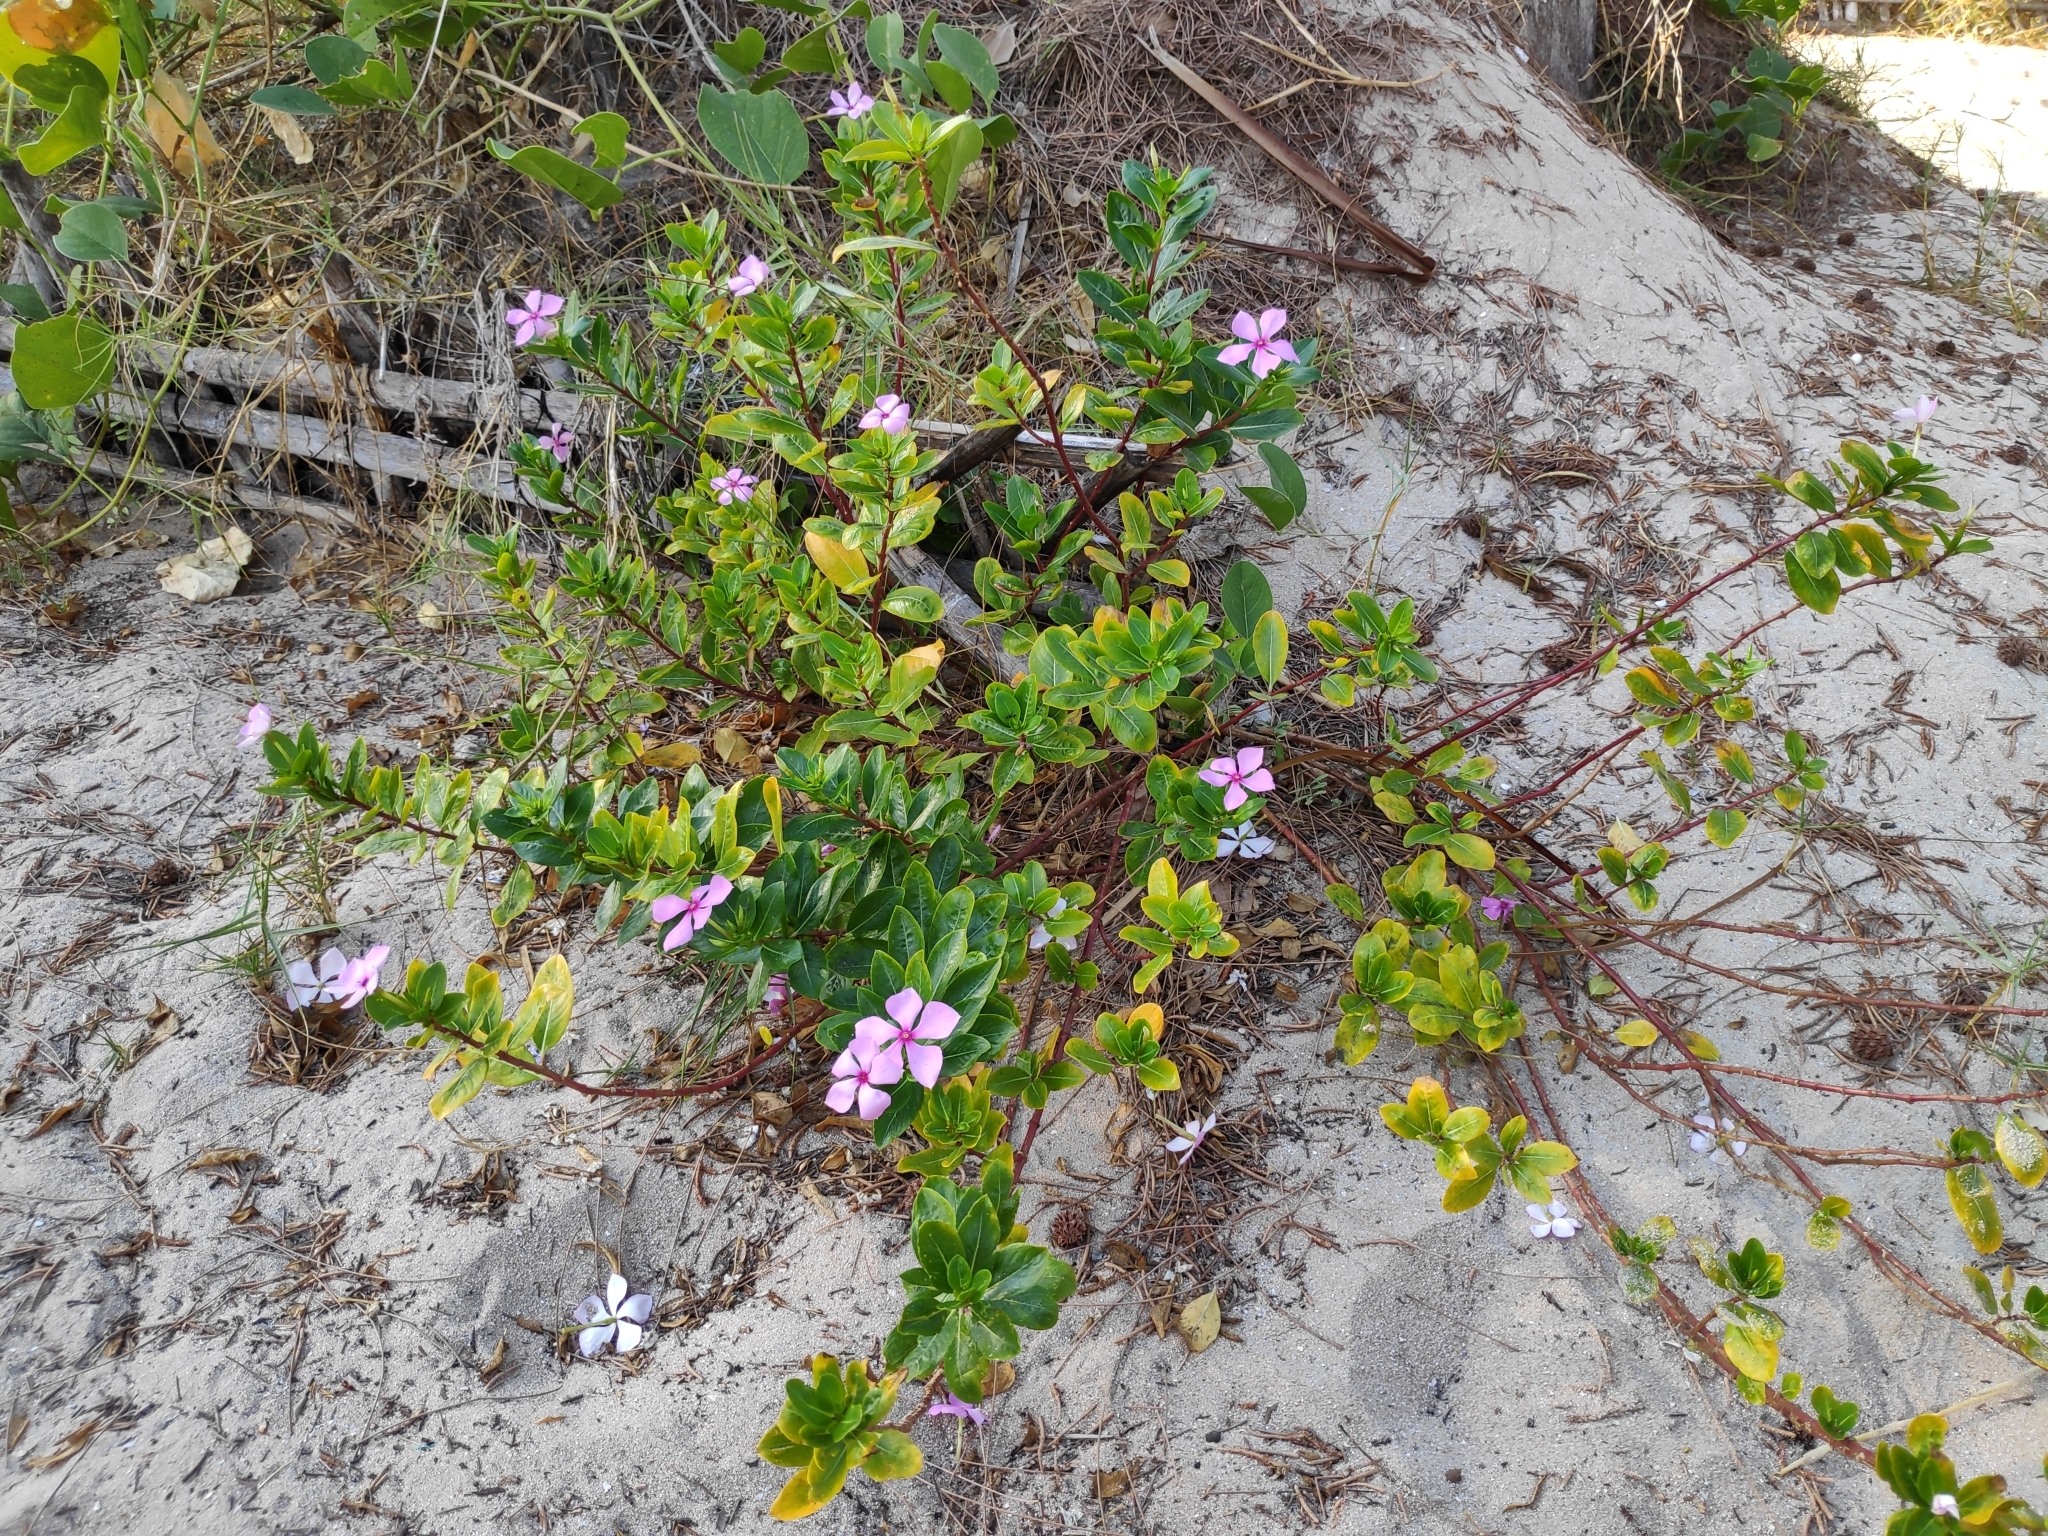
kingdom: Plantae
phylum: Tracheophyta
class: Magnoliopsida
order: Gentianales
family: Apocynaceae
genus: Catharanthus
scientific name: Catharanthus roseus
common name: Madagascar periwinkle
